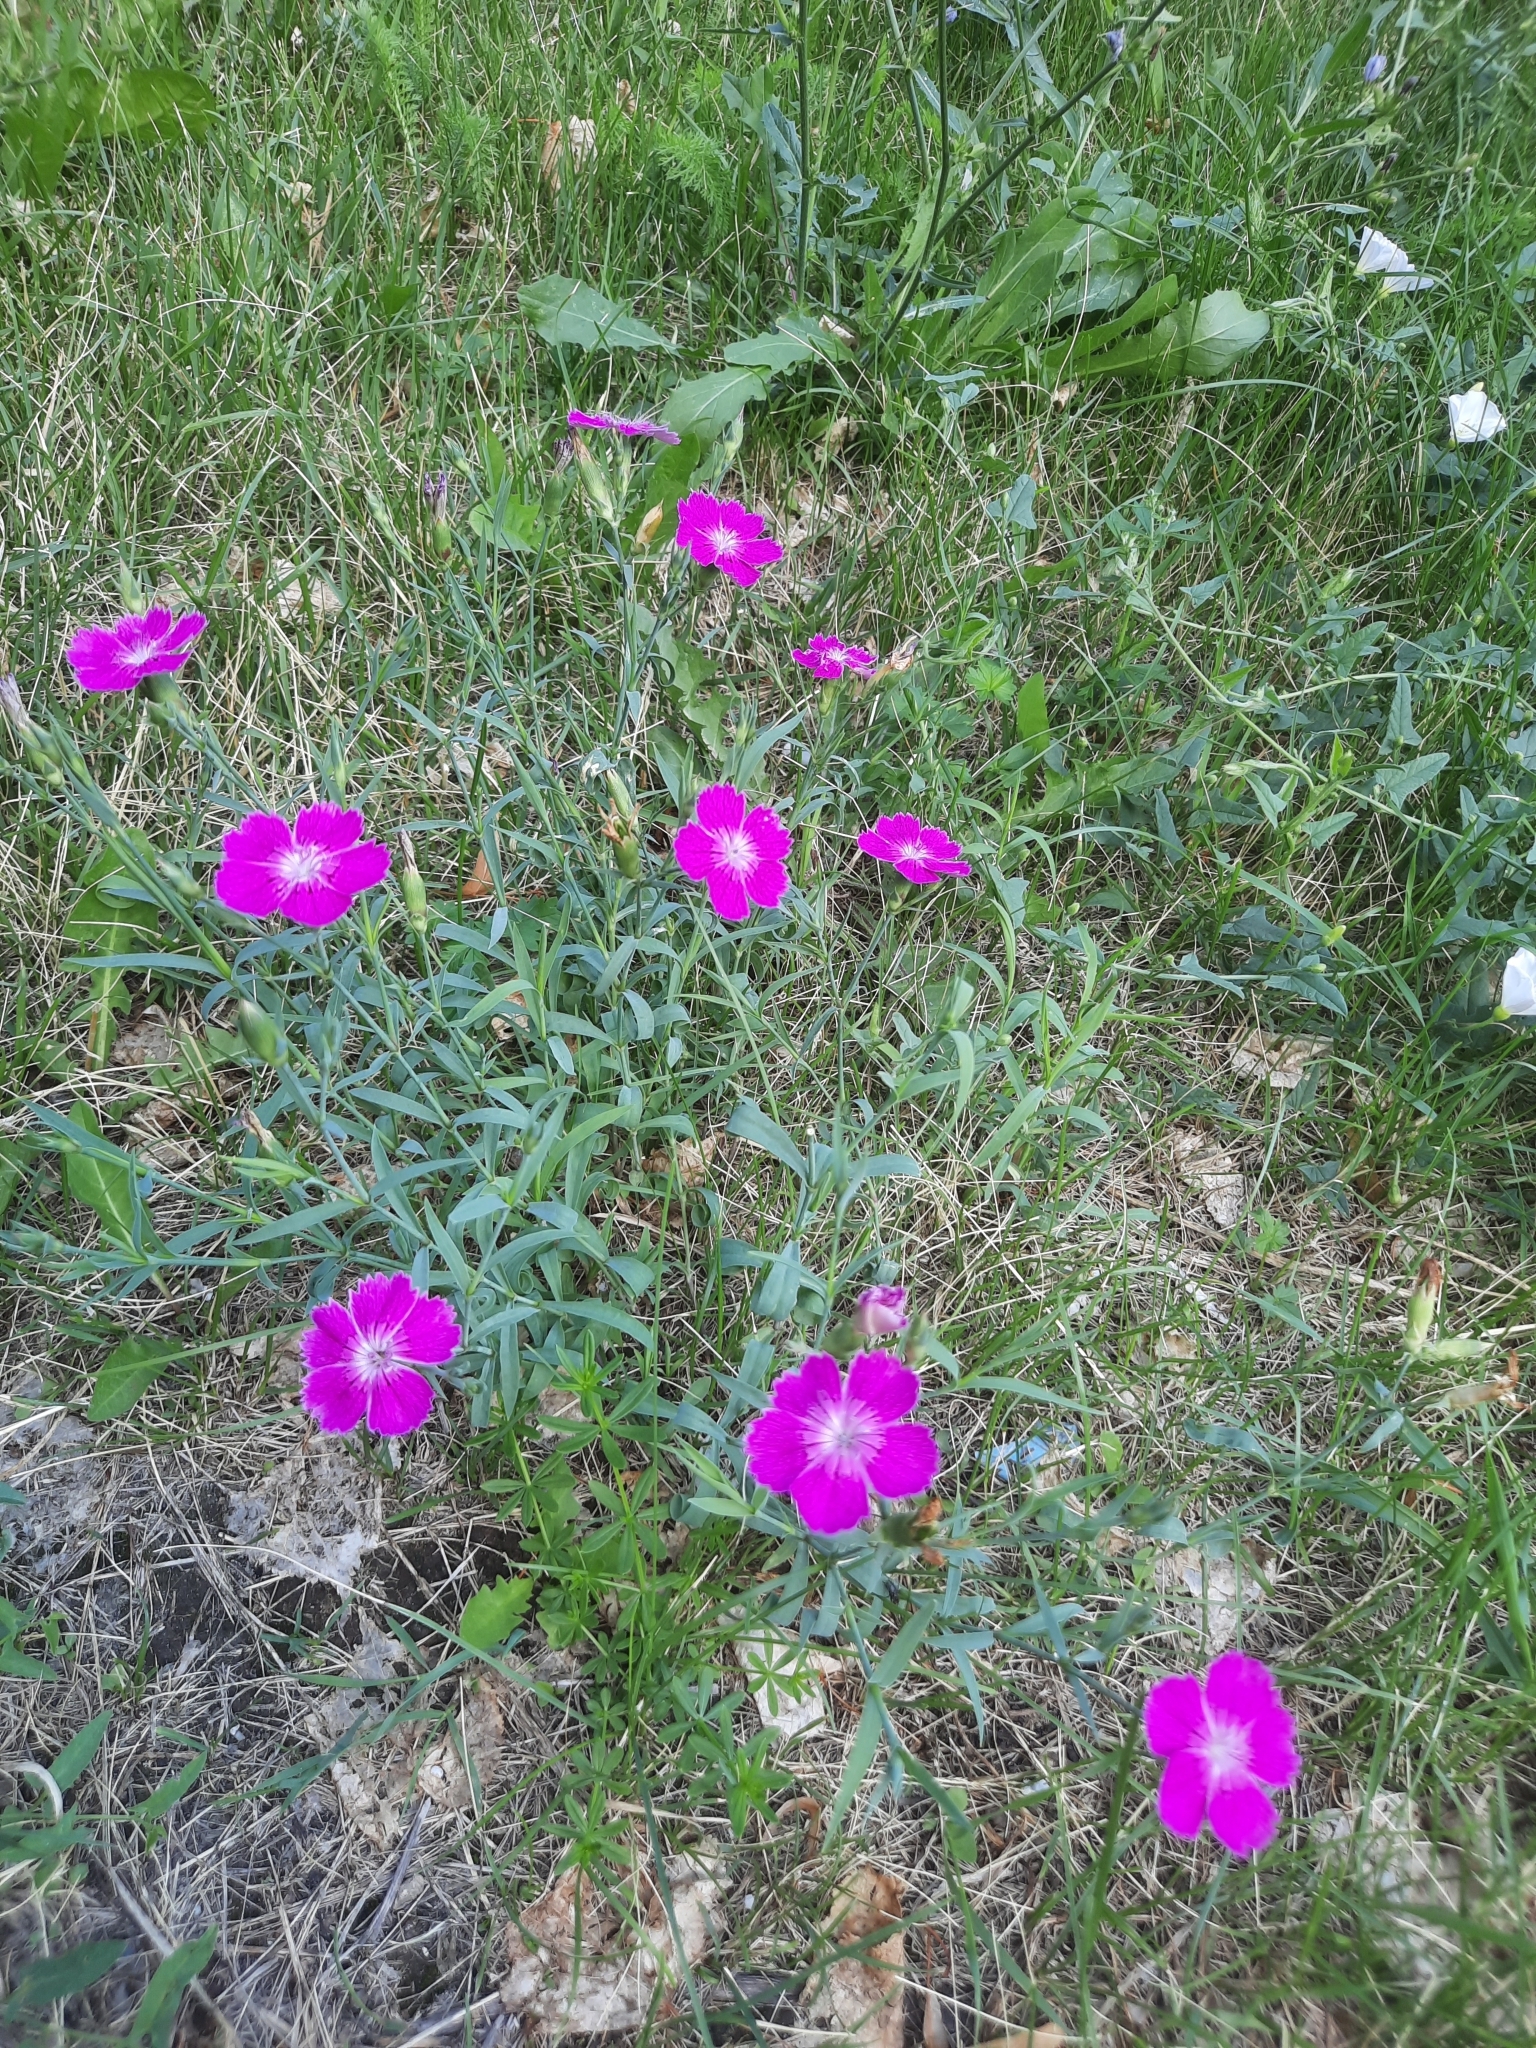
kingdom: Plantae
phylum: Tracheophyta
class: Magnoliopsida
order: Caryophyllales
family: Caryophyllaceae
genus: Dianthus
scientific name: Dianthus chinensis
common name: Rainbow pink
